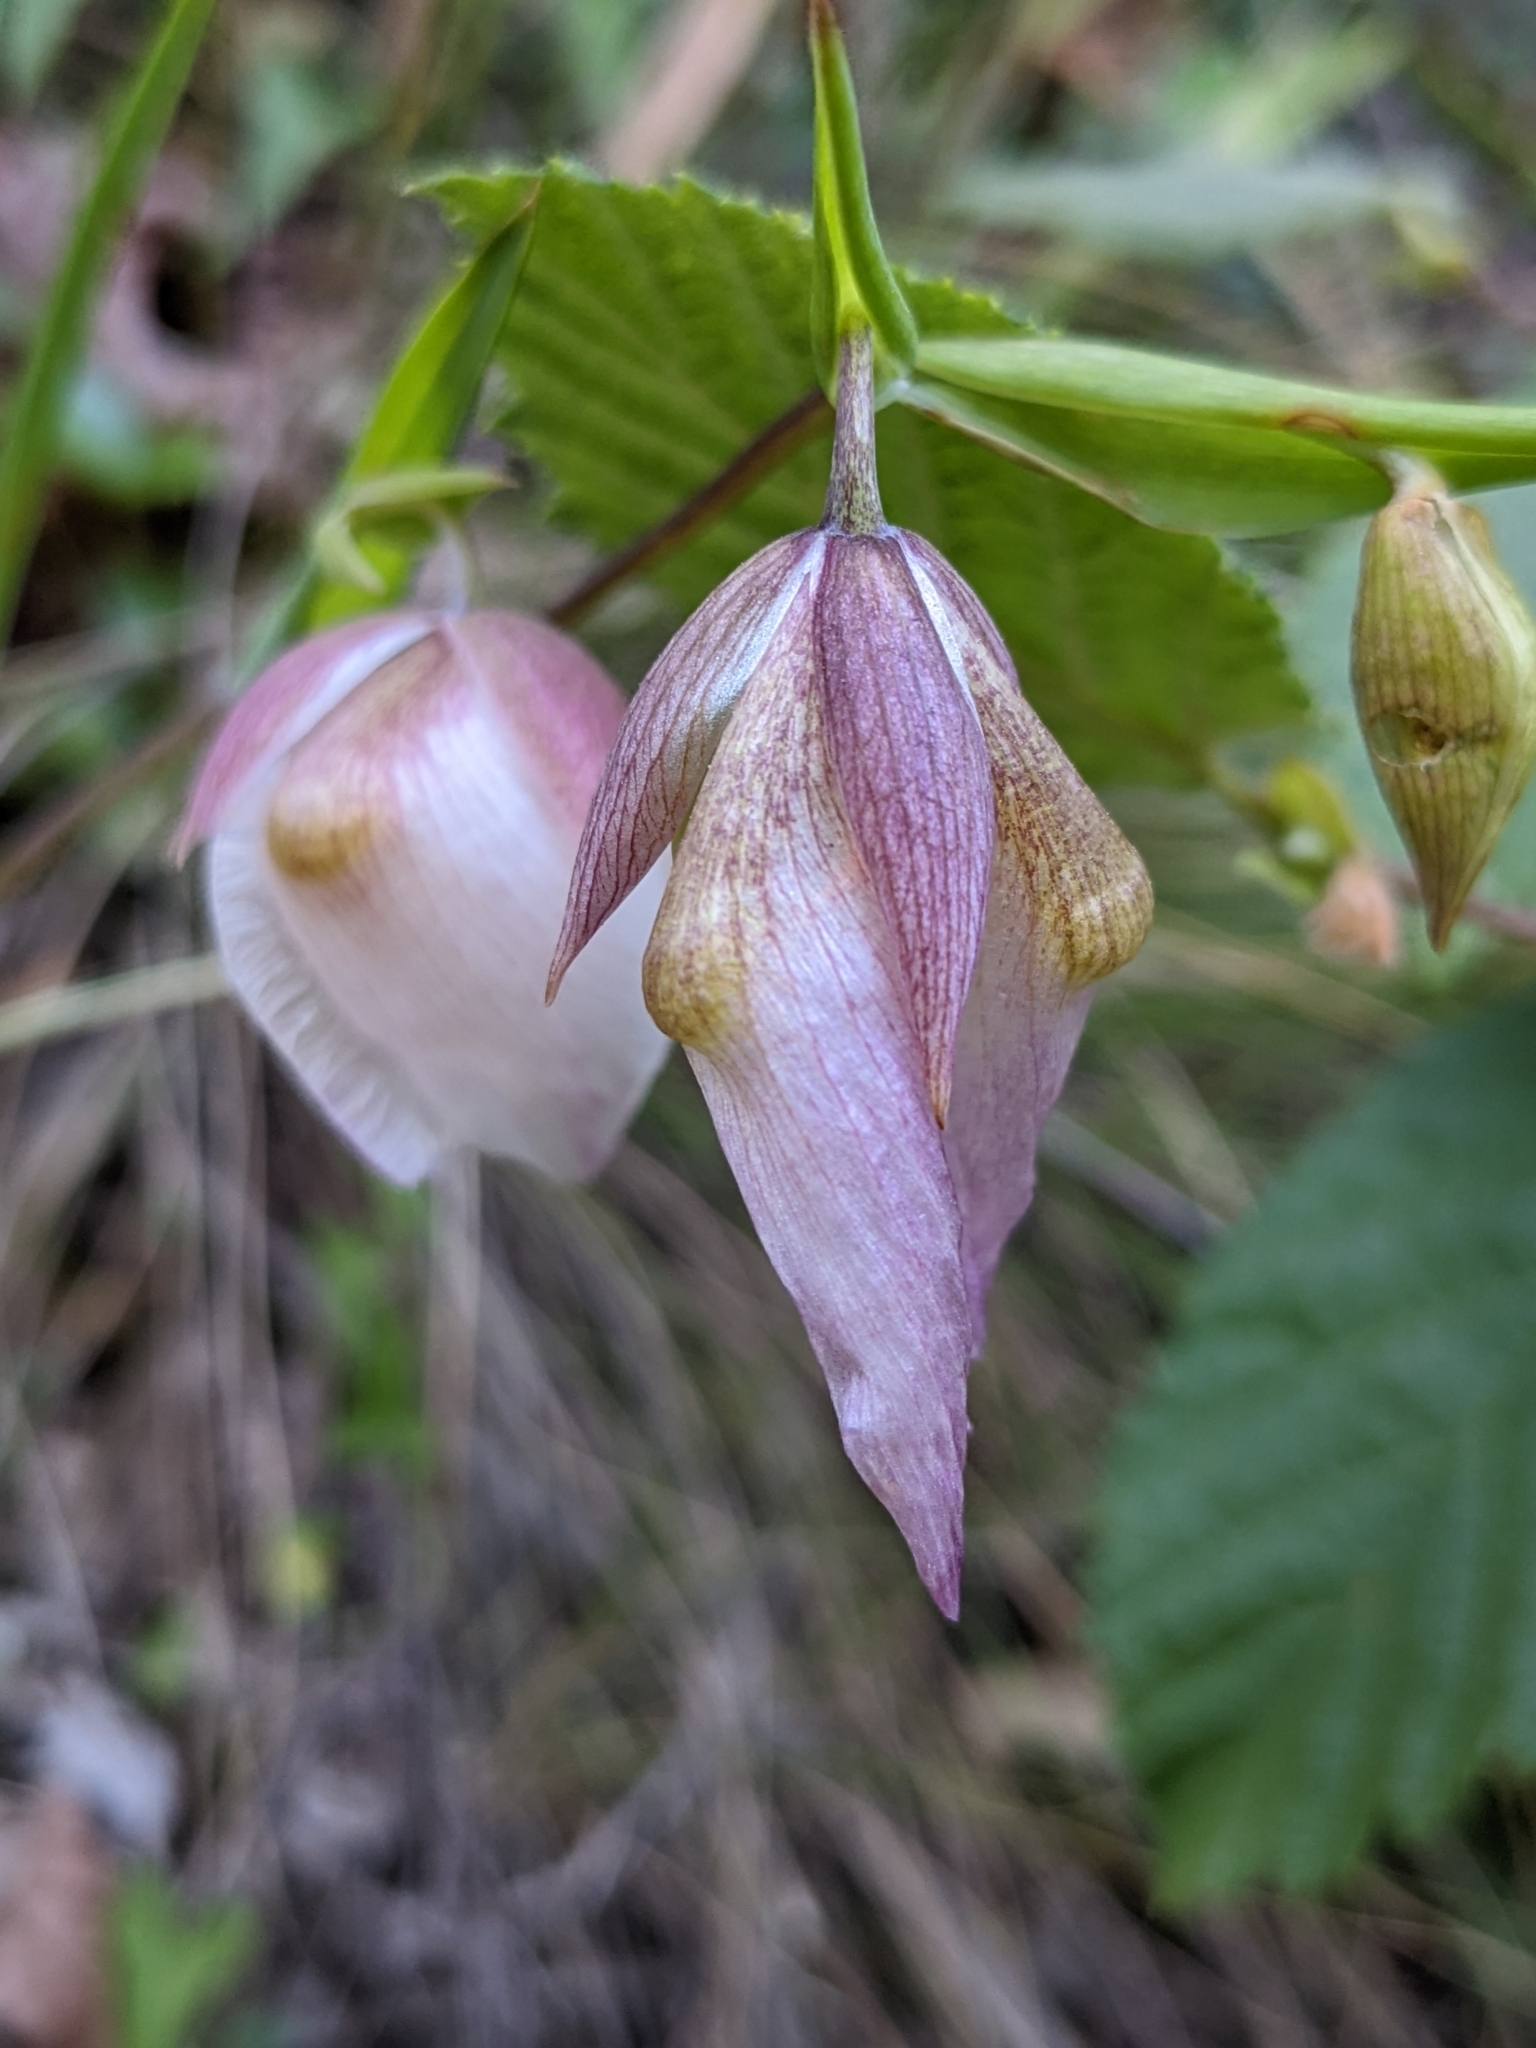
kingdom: Plantae
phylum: Tracheophyta
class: Liliopsida
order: Liliales
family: Liliaceae
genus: Calochortus
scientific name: Calochortus albus
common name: Fairy-lantern
